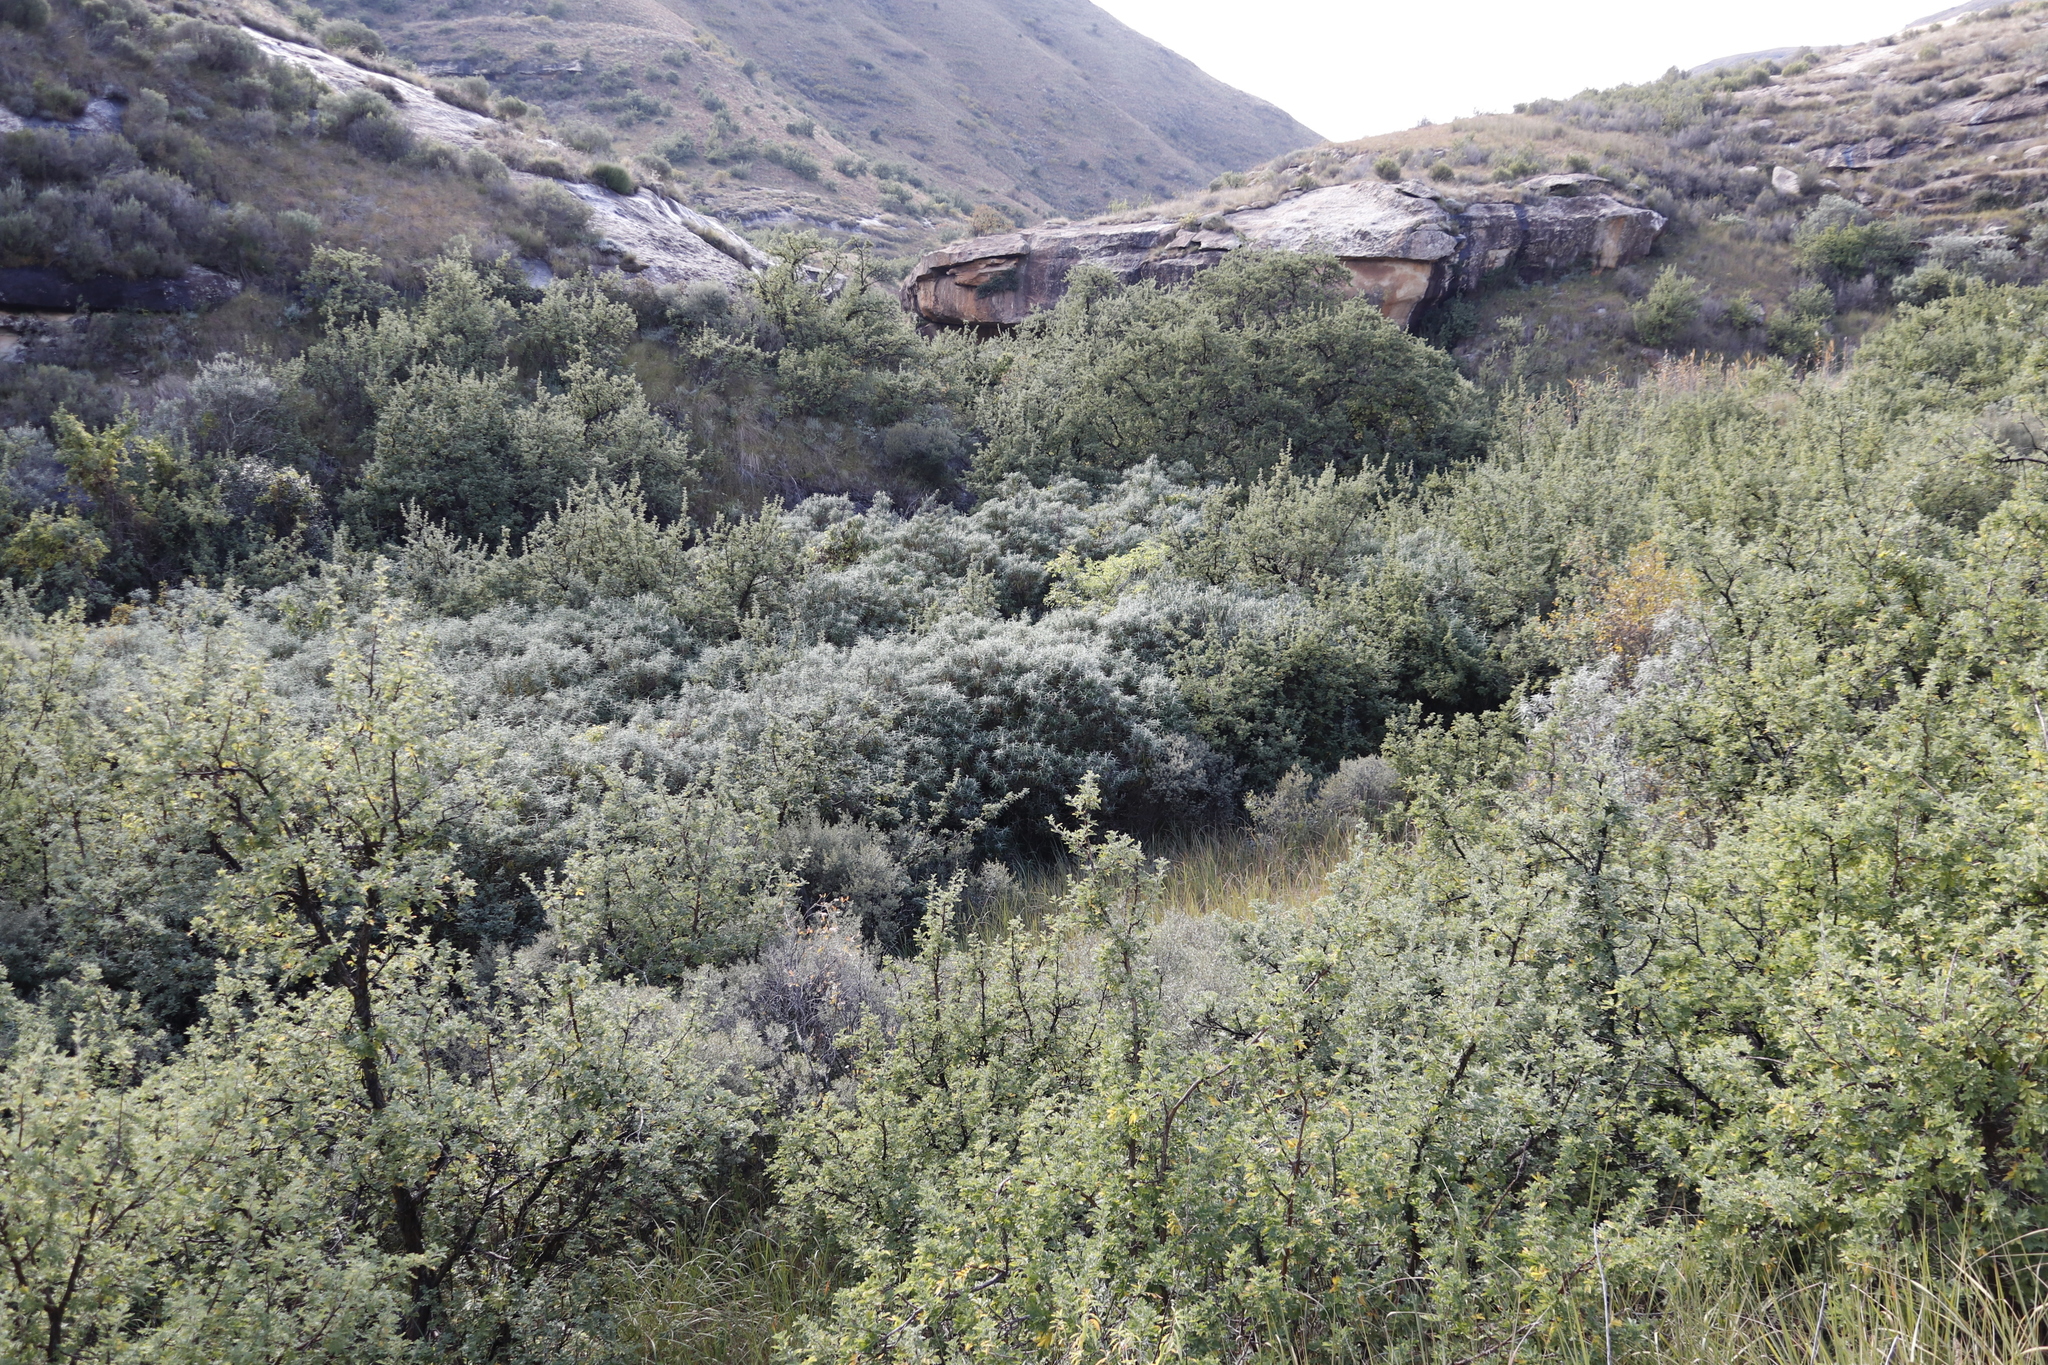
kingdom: Plantae
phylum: Tracheophyta
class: Magnoliopsida
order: Lamiales
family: Scrophulariaceae
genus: Buddleja
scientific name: Buddleja salviifolia
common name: Sagewood
